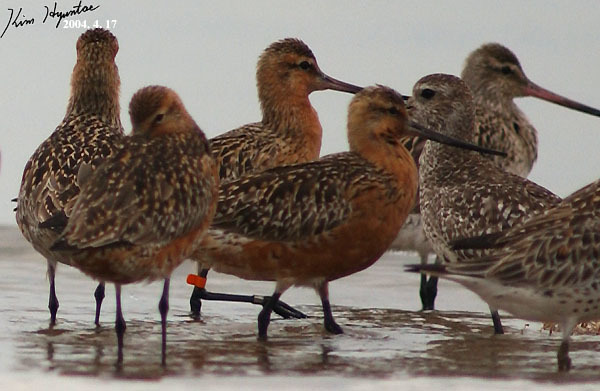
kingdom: Animalia
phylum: Chordata
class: Aves
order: Charadriiformes
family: Scolopacidae
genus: Limosa
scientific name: Limosa lapponica
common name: Bar-tailed godwit
